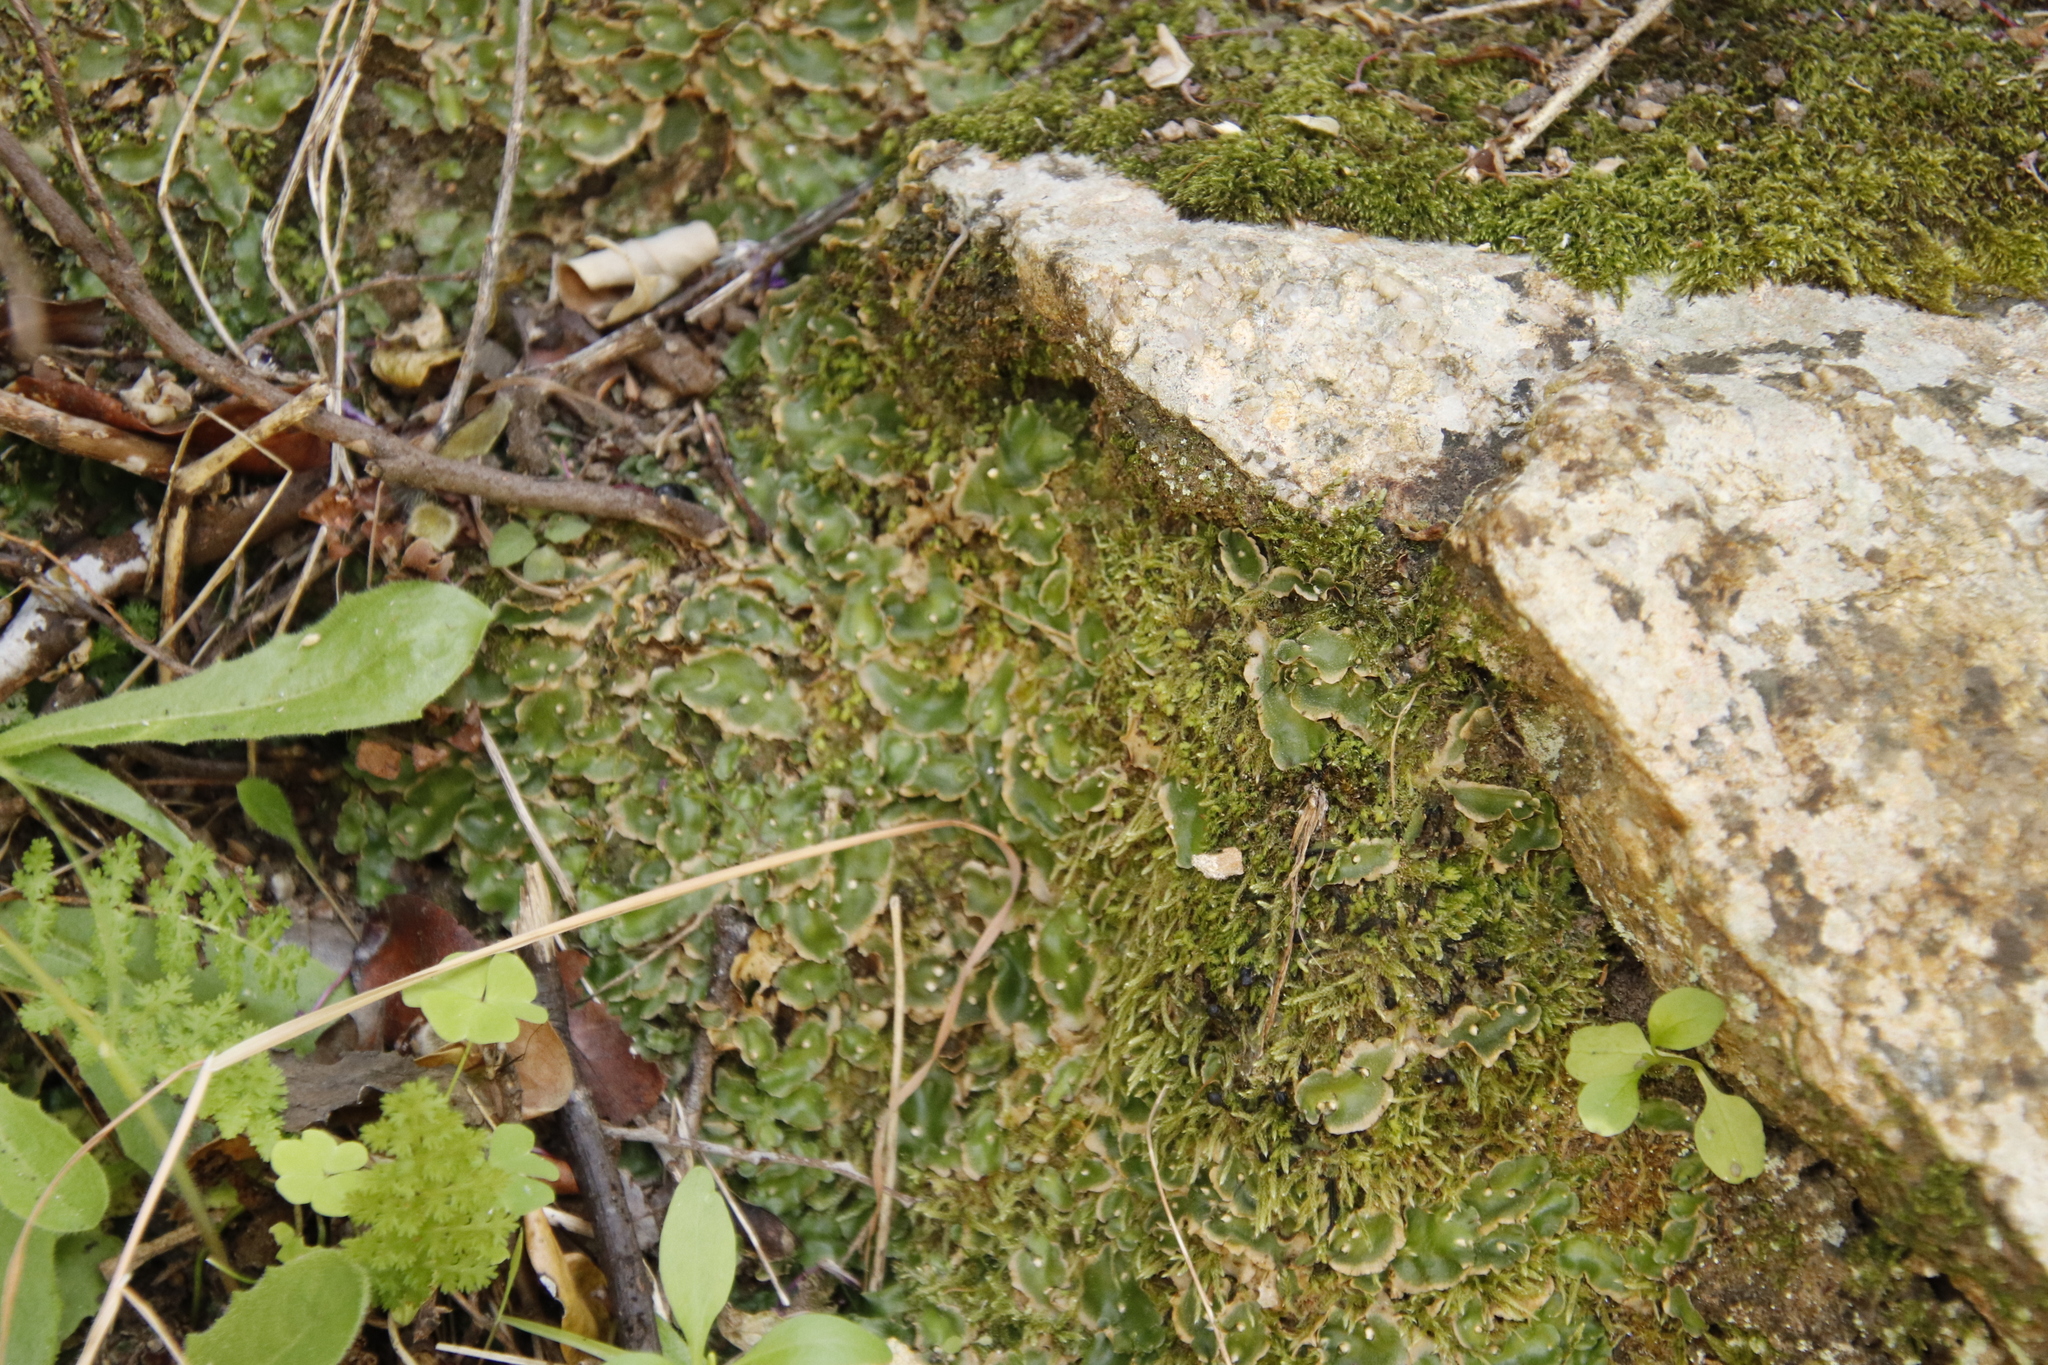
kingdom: Plantae
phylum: Bryophyta
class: Bryopsida
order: Hypnales
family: Hypnaceae
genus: Hypnum
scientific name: Hypnum cupressiforme
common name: Cypress-leaved plait-moss
